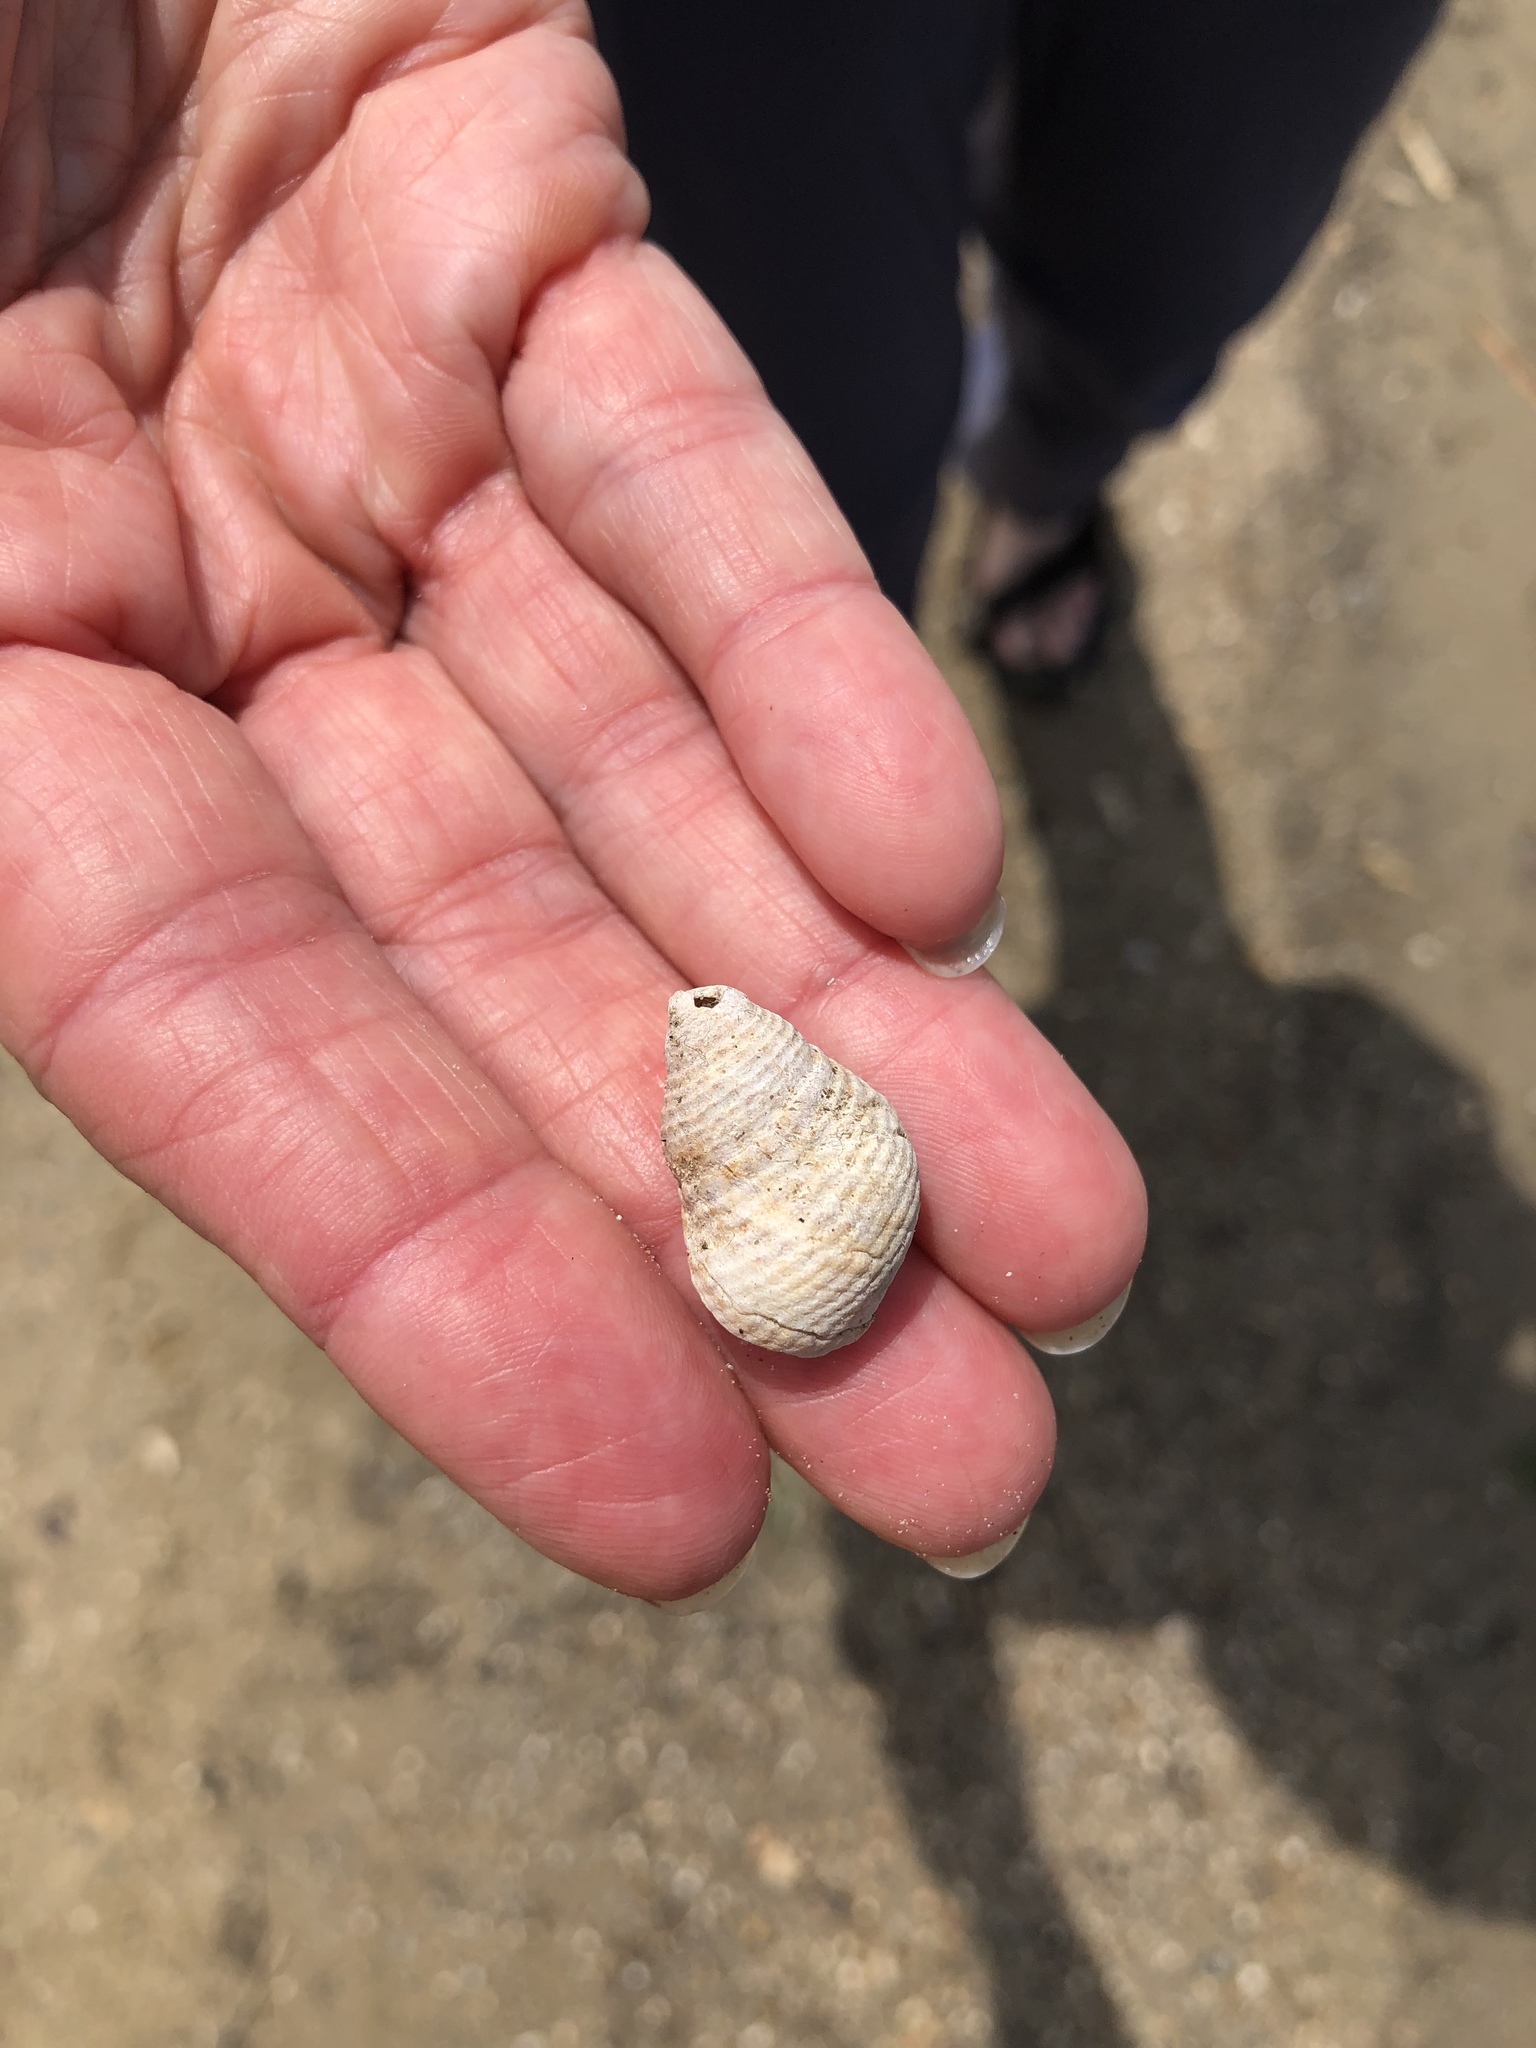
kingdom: Animalia
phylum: Mollusca
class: Gastropoda
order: Littorinimorpha
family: Littorinidae
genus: Littoraria
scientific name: Littoraria irrorata
